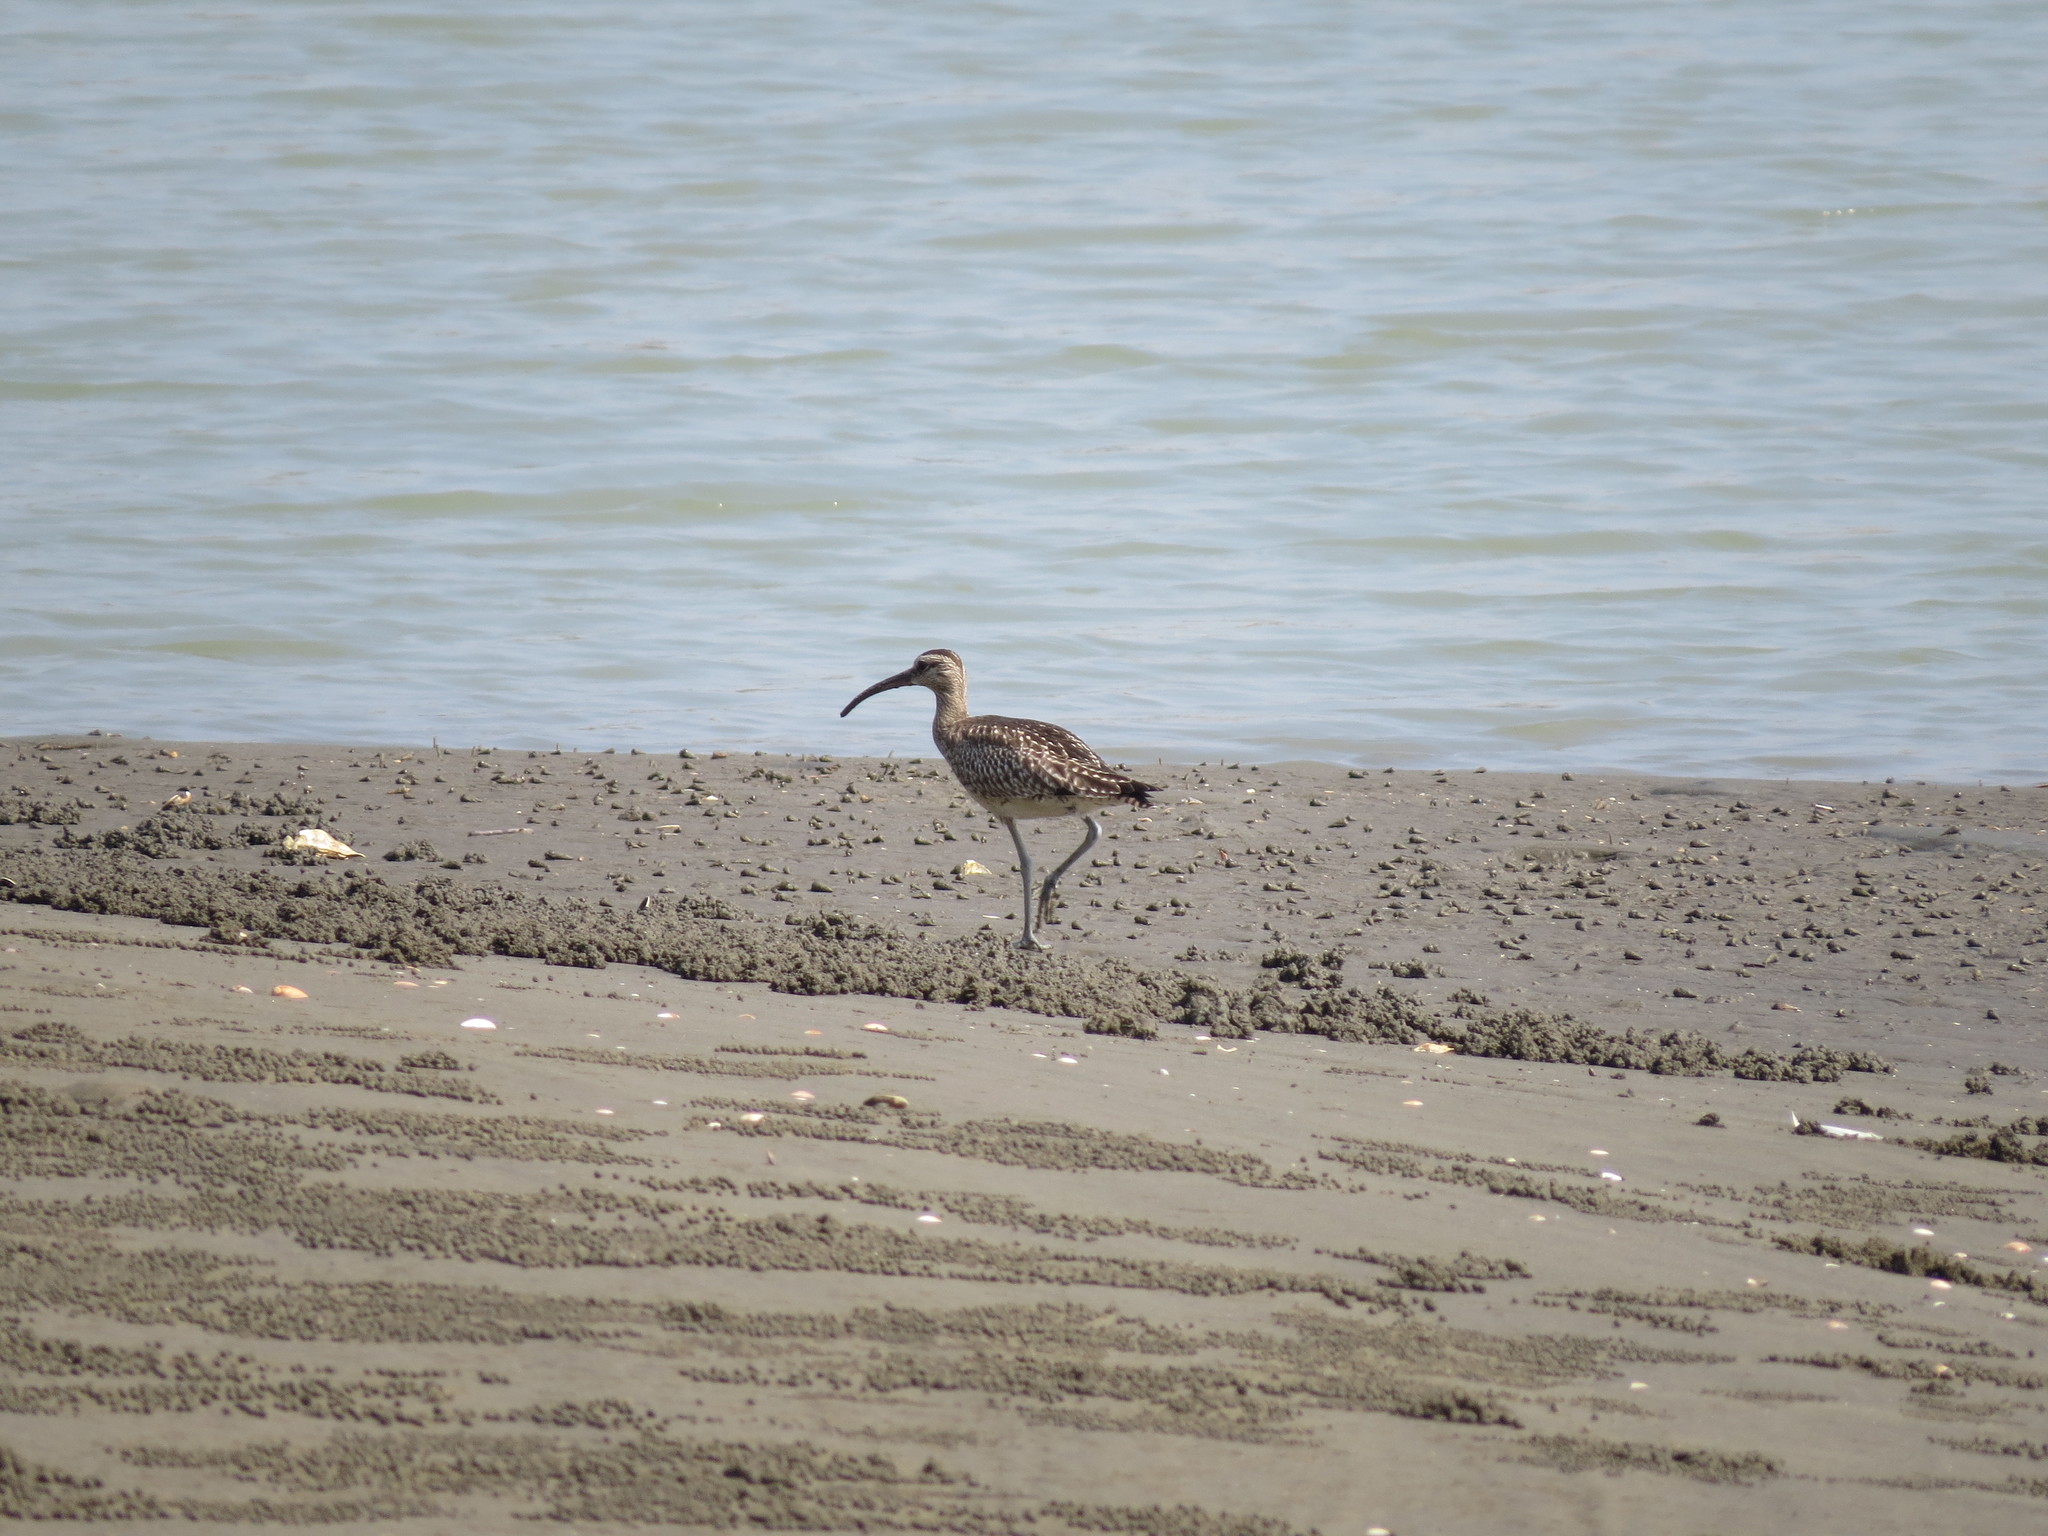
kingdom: Animalia
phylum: Chordata
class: Aves
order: Charadriiformes
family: Scolopacidae
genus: Numenius
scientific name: Numenius phaeopus
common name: Whimbrel
